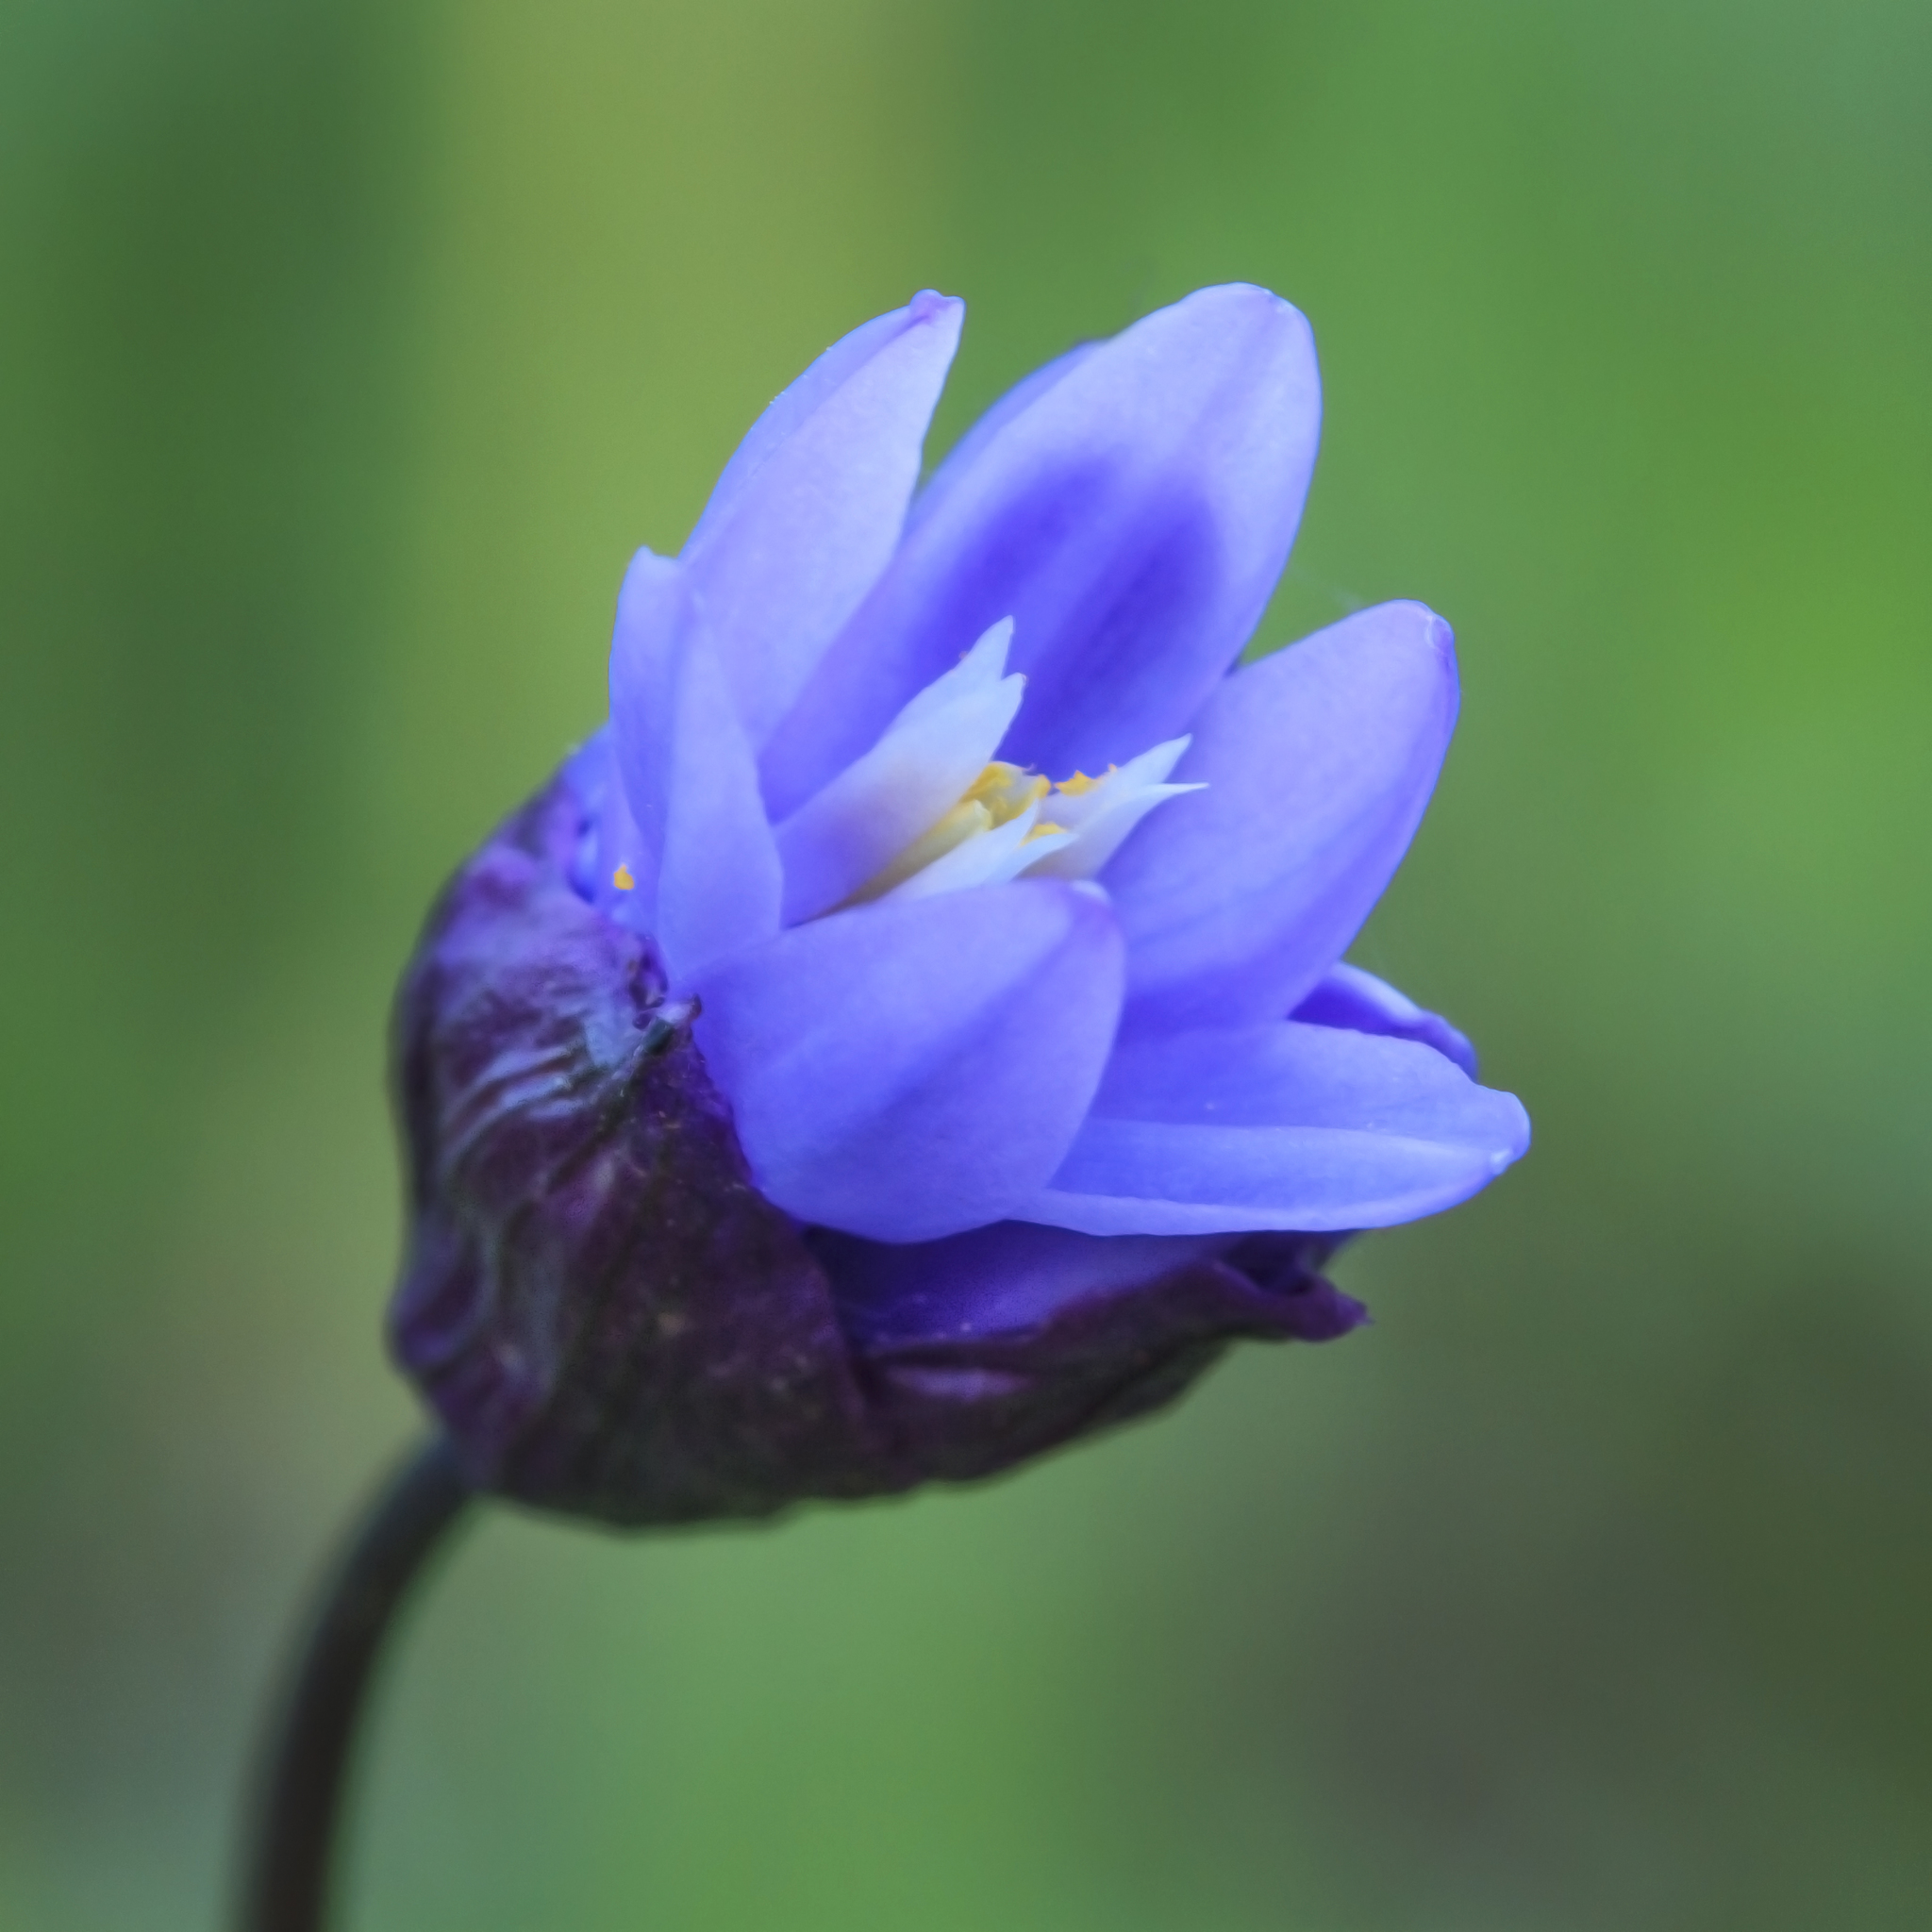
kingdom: Plantae
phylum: Tracheophyta
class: Liliopsida
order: Asparagales
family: Asparagaceae
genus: Dipterostemon
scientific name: Dipterostemon capitatus
